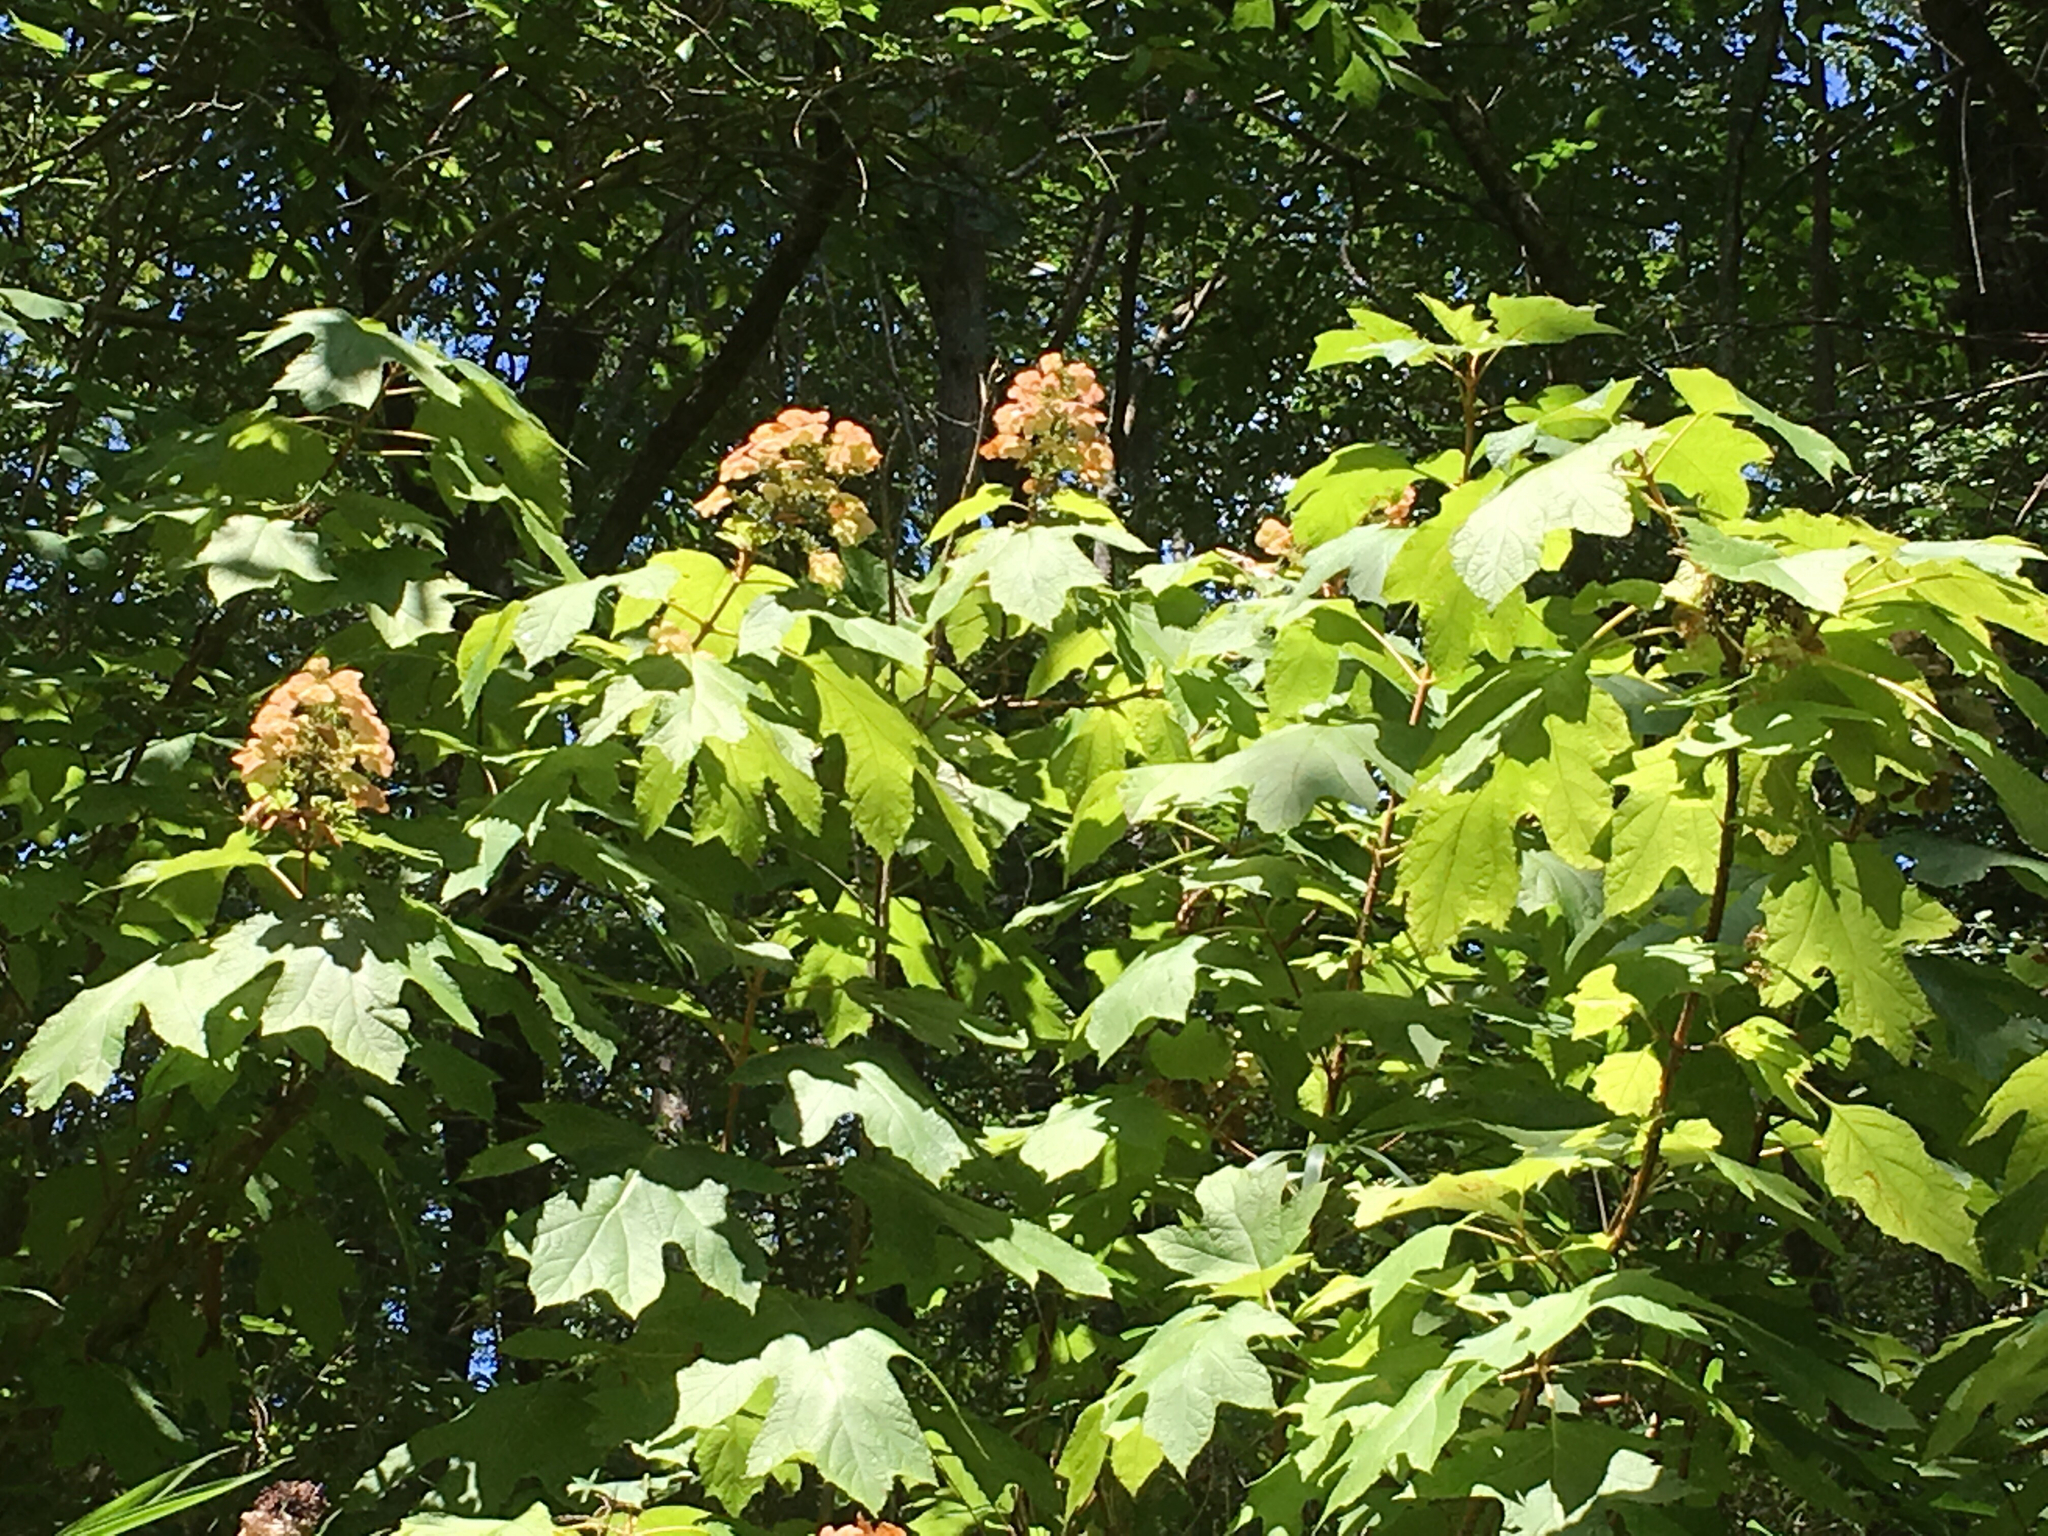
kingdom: Plantae
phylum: Tracheophyta
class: Magnoliopsida
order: Cornales
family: Hydrangeaceae
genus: Hydrangea
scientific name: Hydrangea quercifolia
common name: Oak-leaf hydrangea
